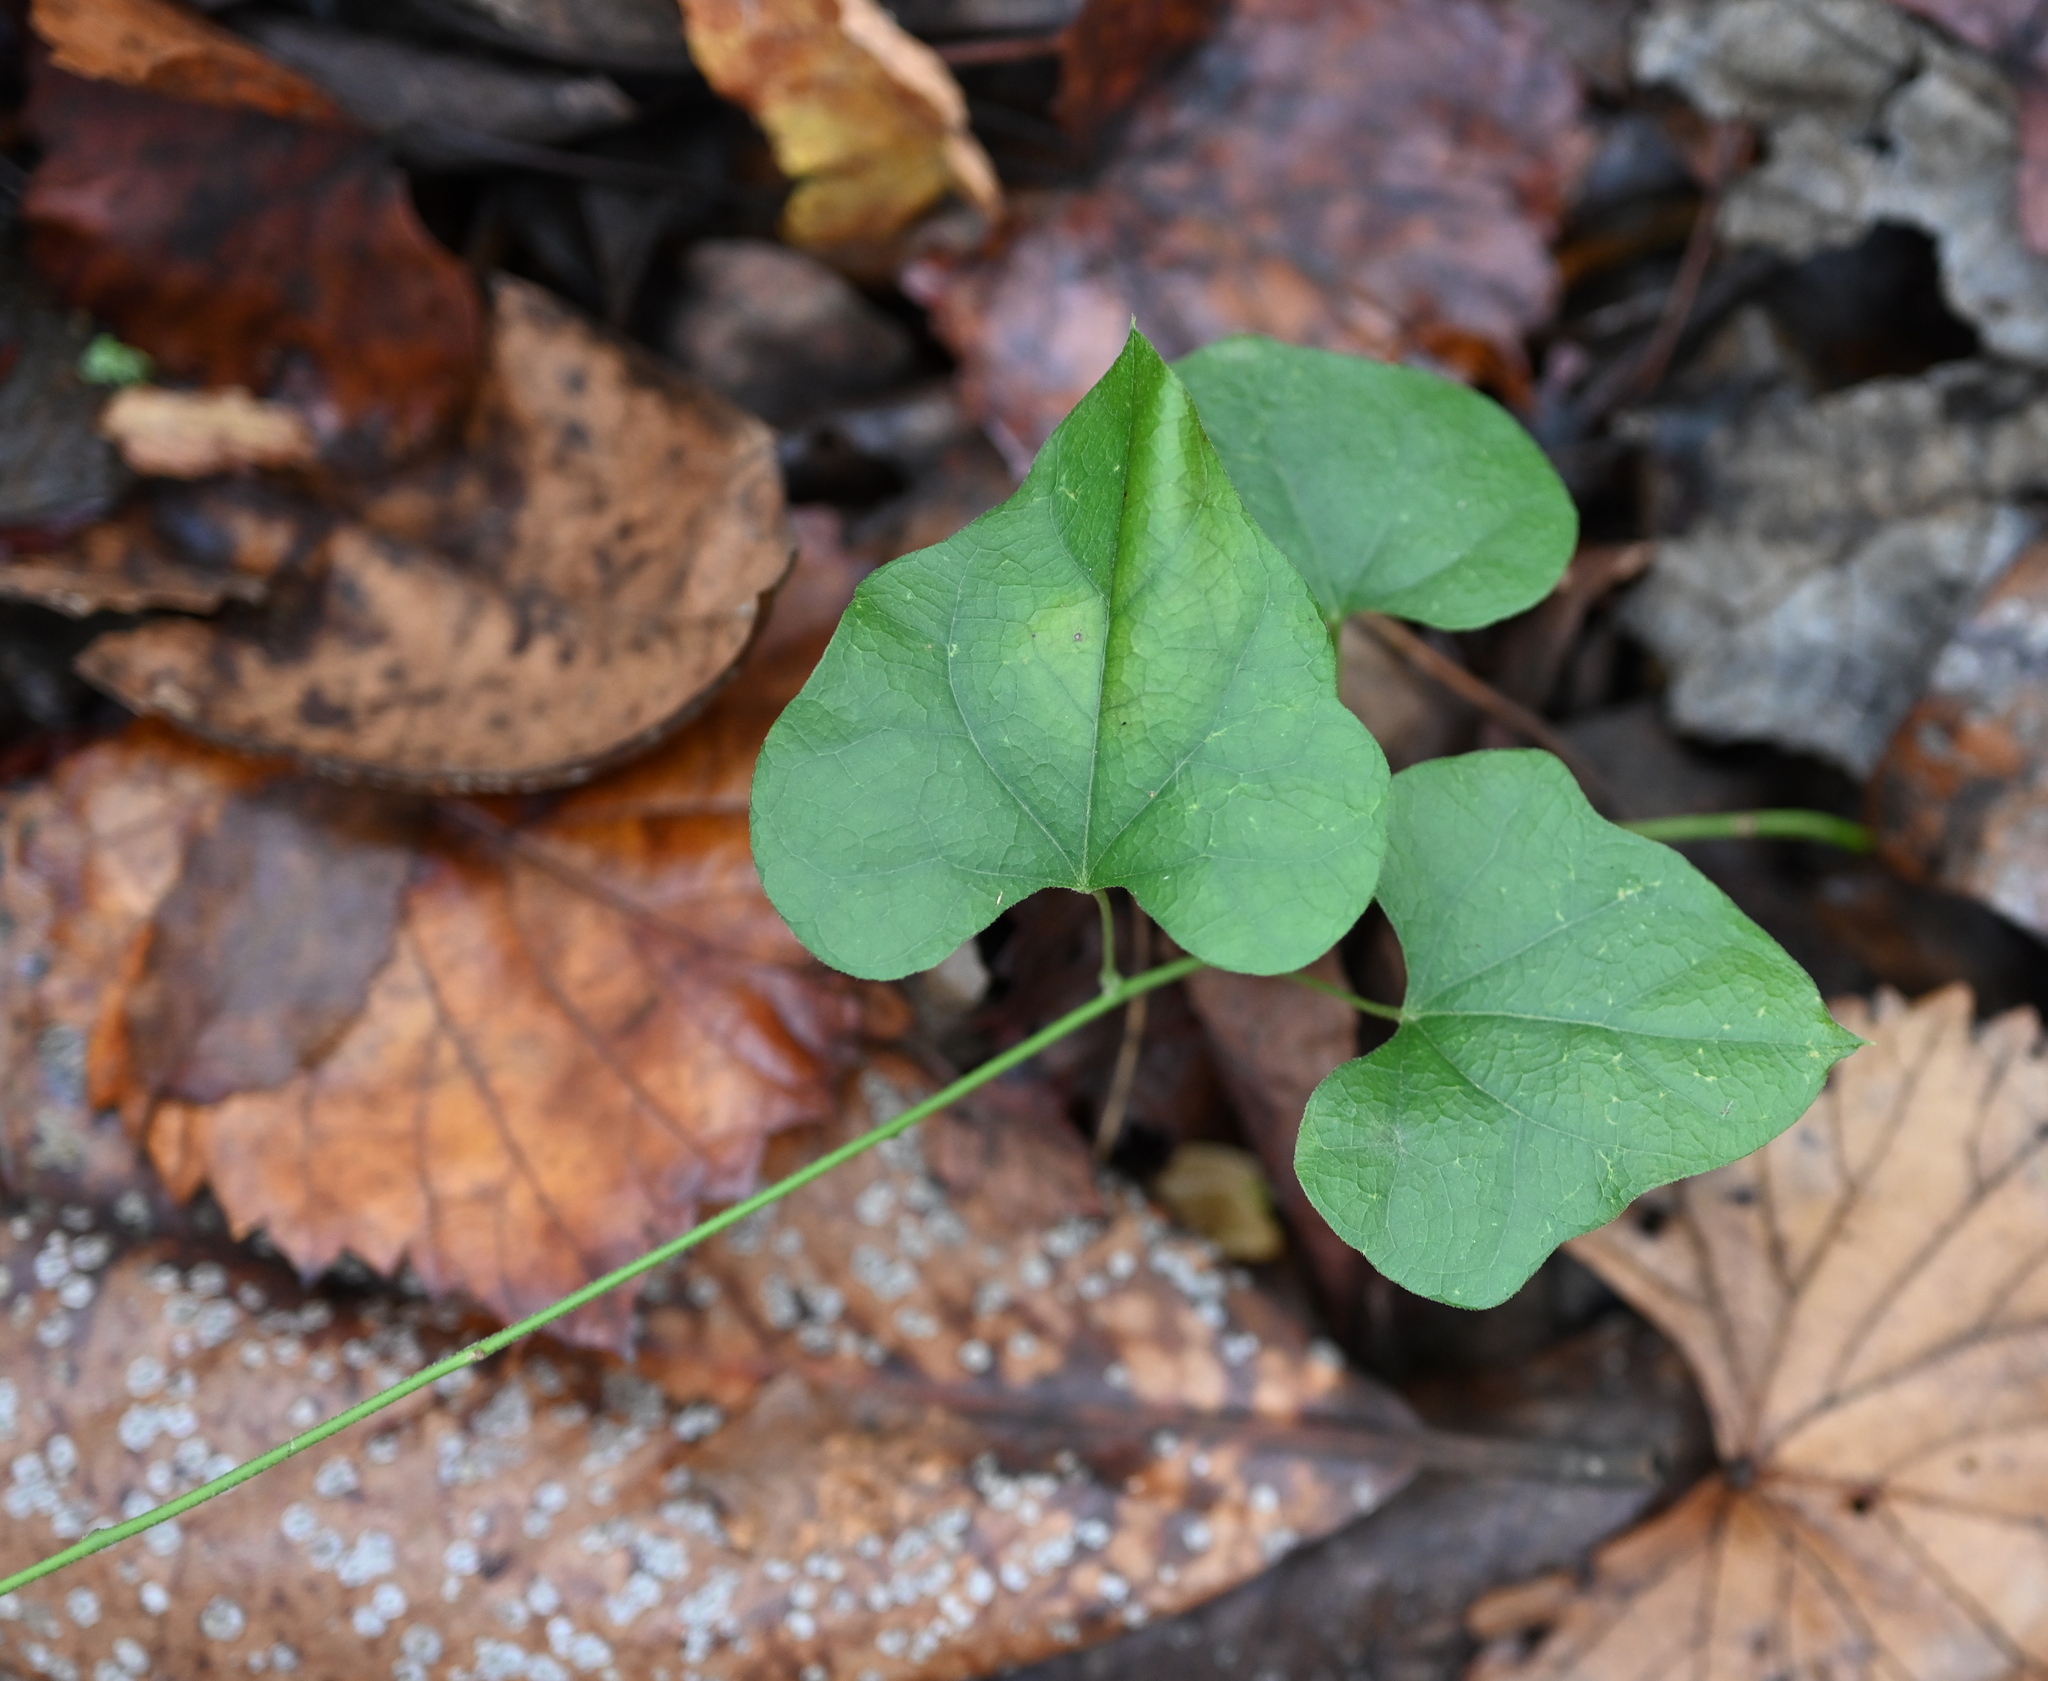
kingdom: Plantae
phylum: Tracheophyta
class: Magnoliopsida
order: Ranunculales
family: Menispermaceae
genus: Cocculus
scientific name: Cocculus carolinus
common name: Carolina moonseed
